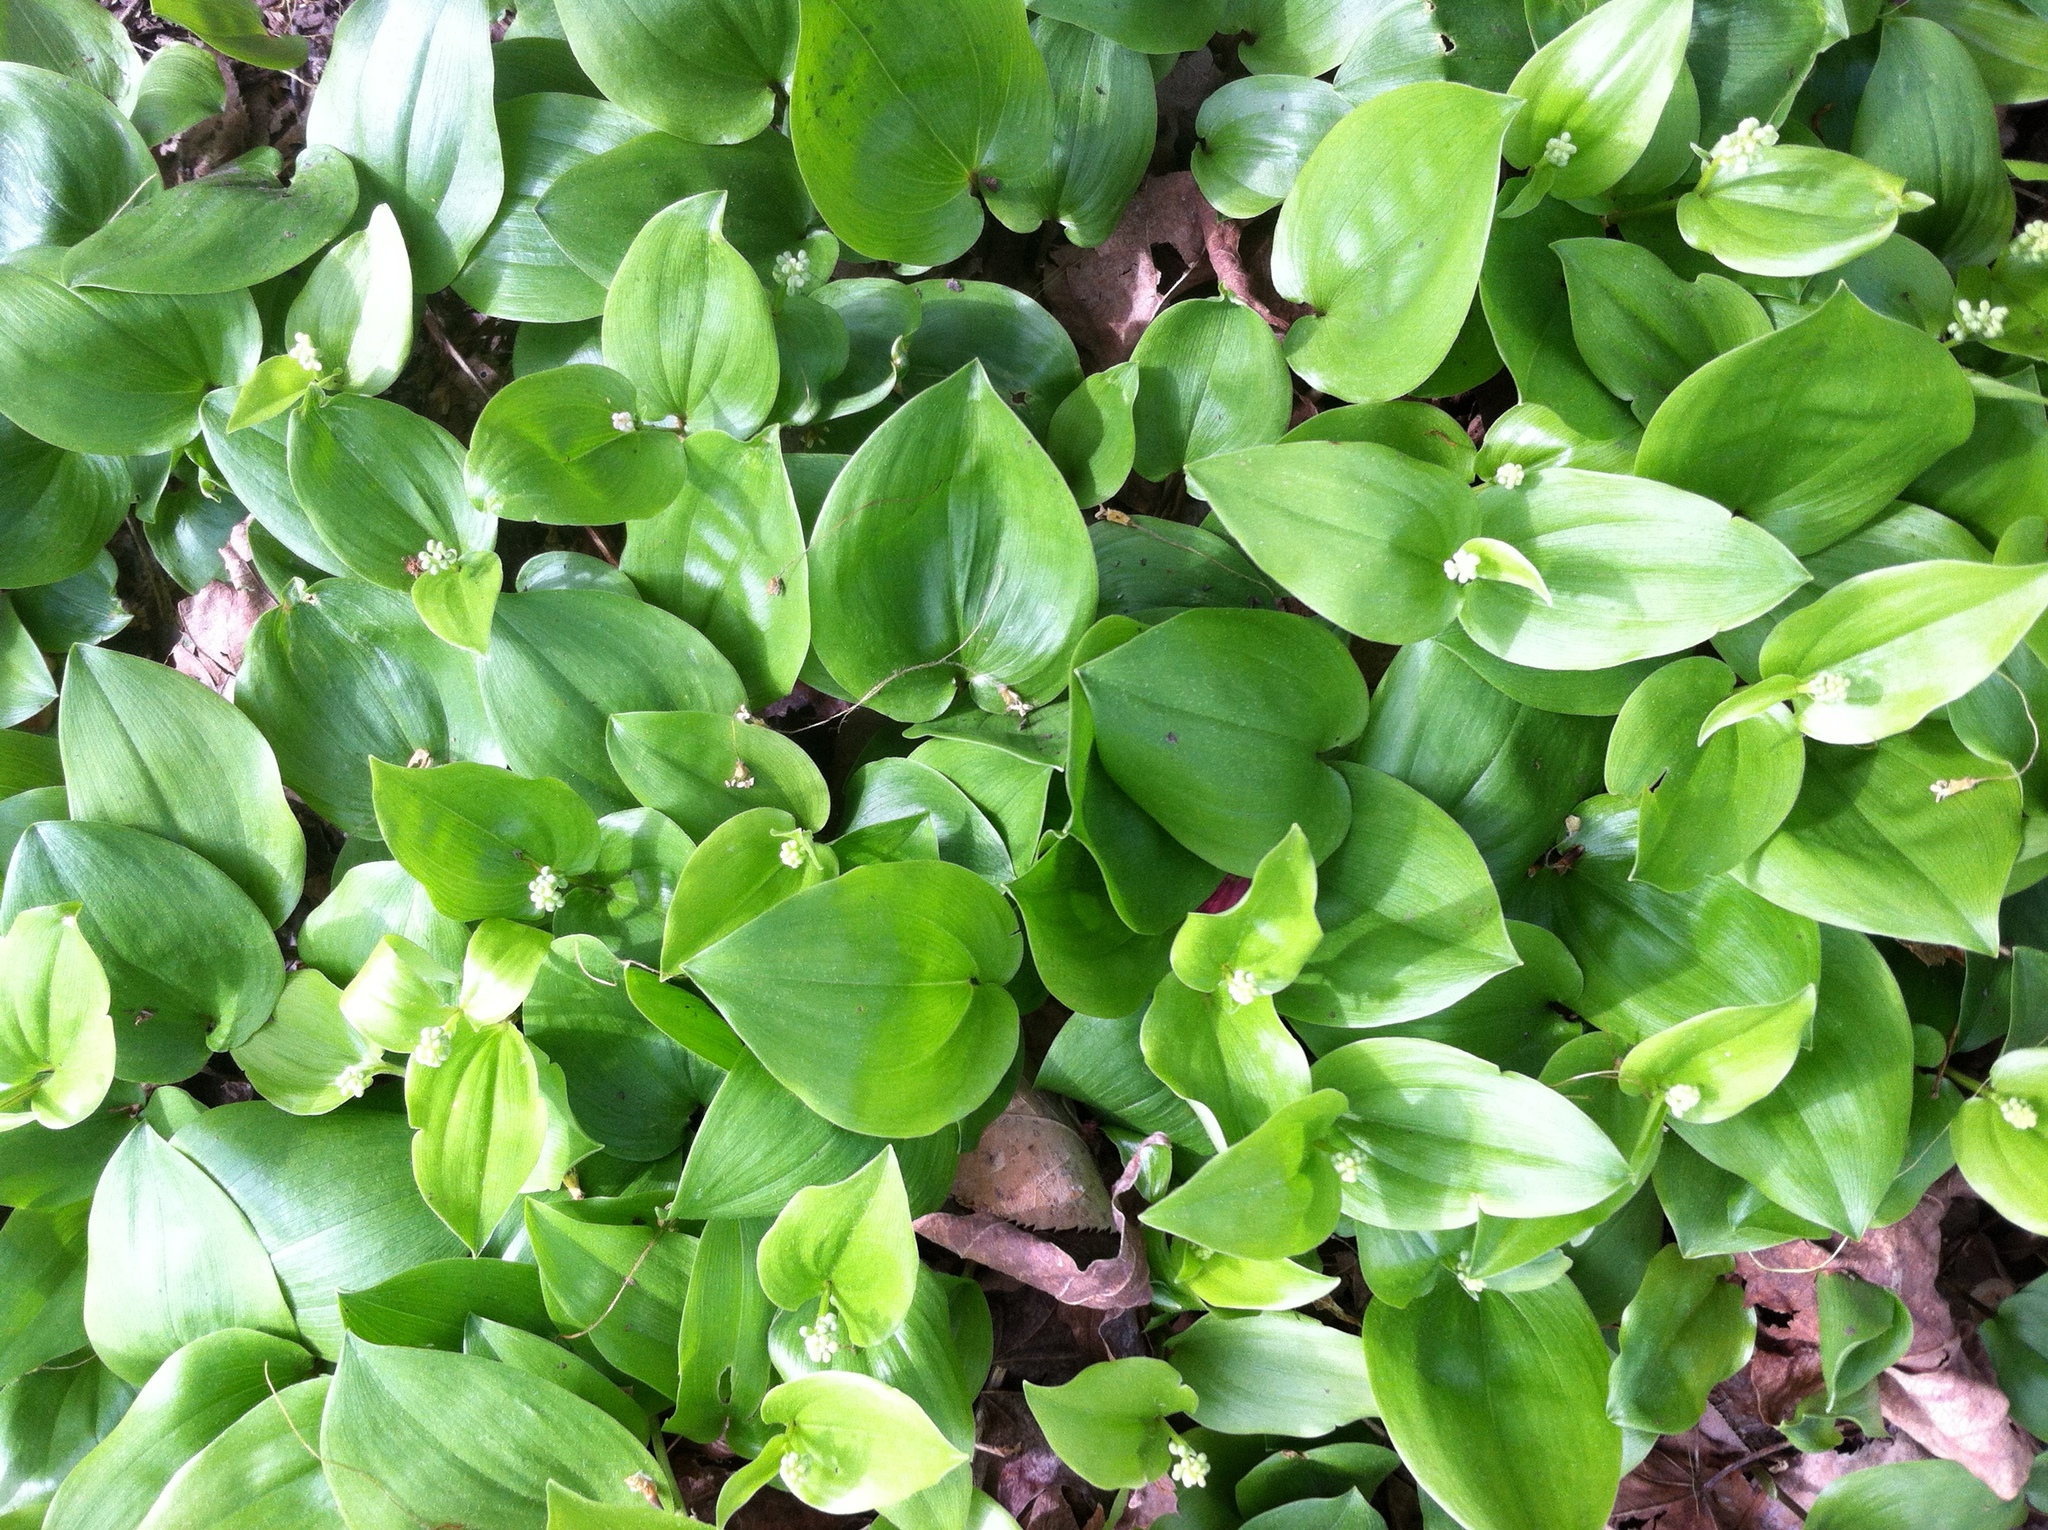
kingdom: Plantae
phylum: Tracheophyta
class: Liliopsida
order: Asparagales
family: Asparagaceae
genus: Maianthemum
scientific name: Maianthemum canadense
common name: False lily-of-the-valley
